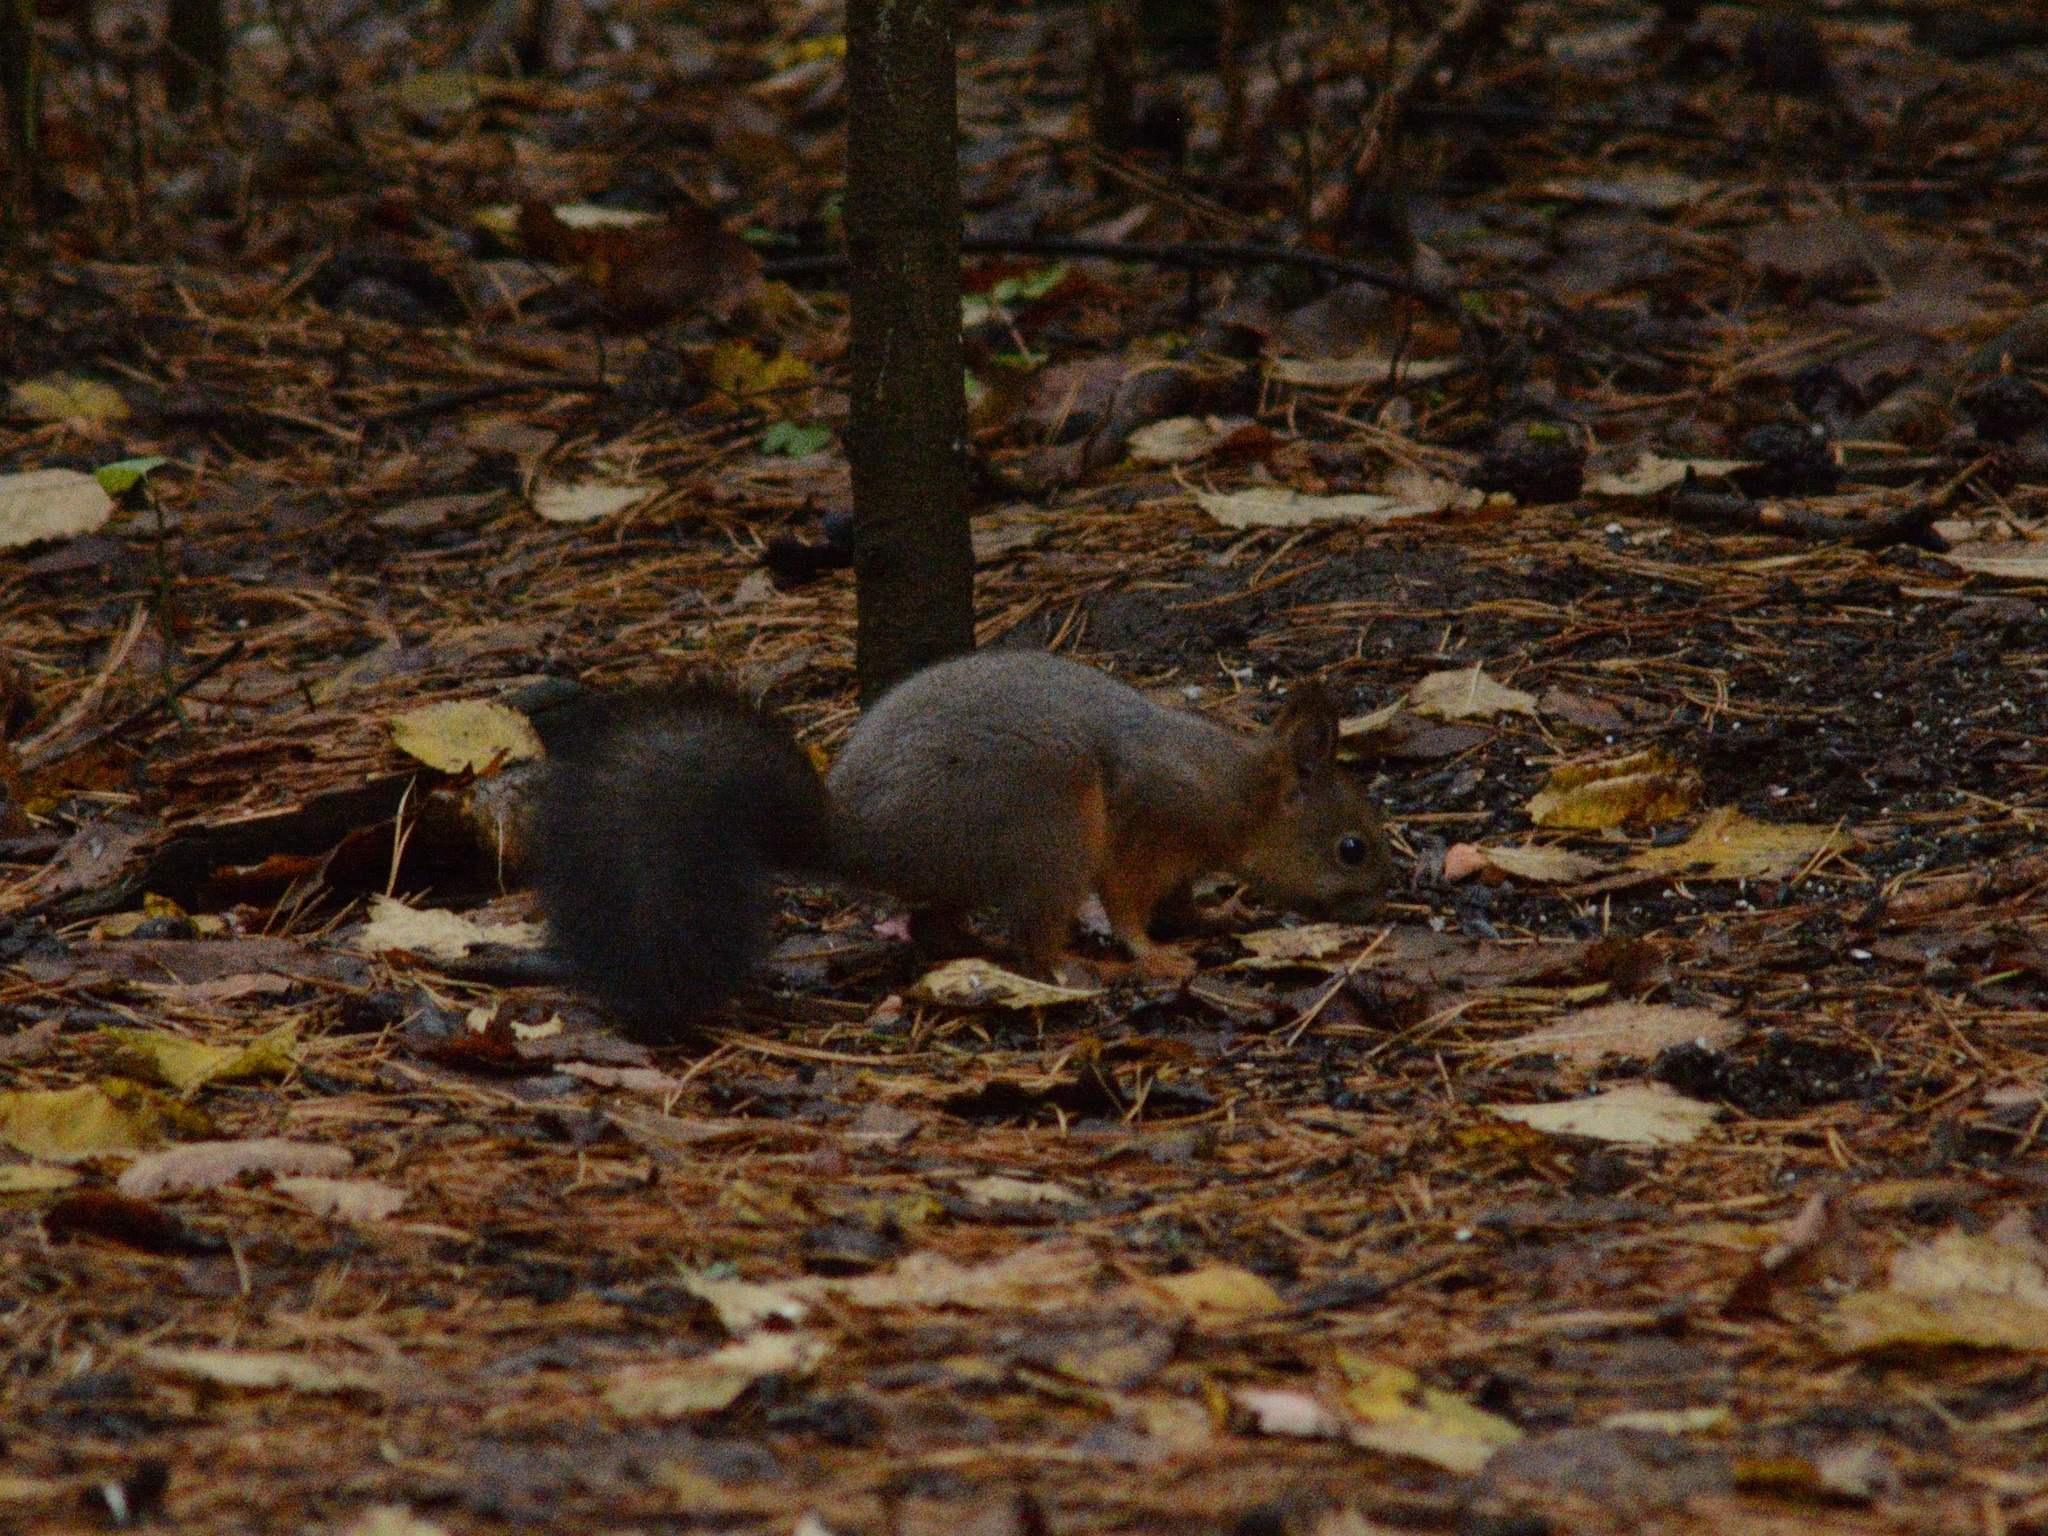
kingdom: Animalia
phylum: Chordata
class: Mammalia
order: Rodentia
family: Sciuridae
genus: Sciurus
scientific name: Sciurus vulgaris
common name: Eurasian red squirrel
